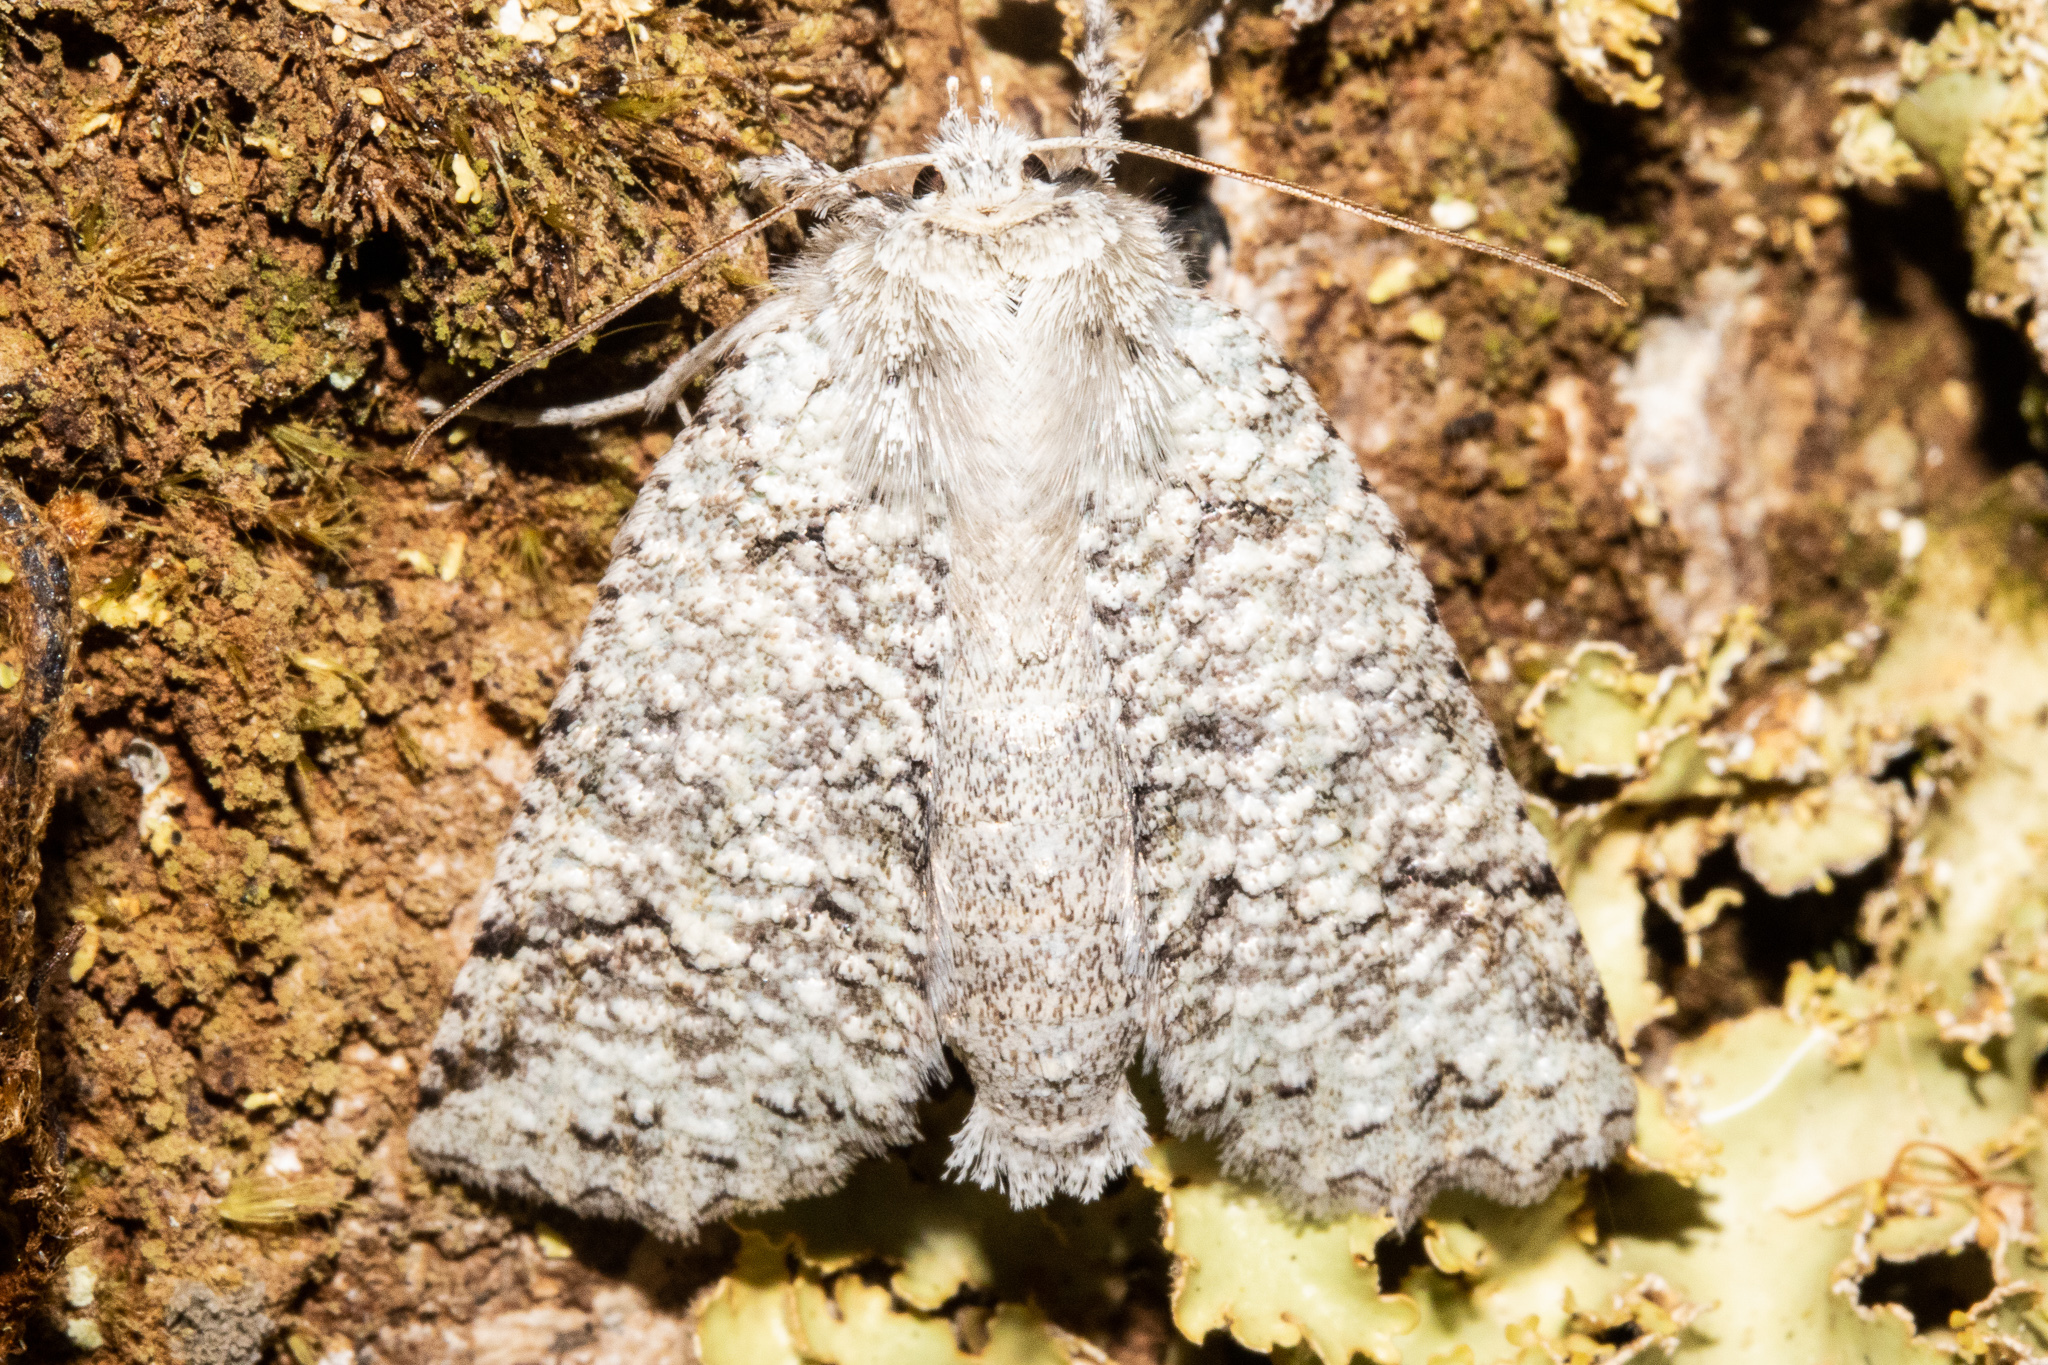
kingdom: Animalia
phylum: Arthropoda
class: Insecta
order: Lepidoptera
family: Geometridae
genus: Declana
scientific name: Declana floccosa
